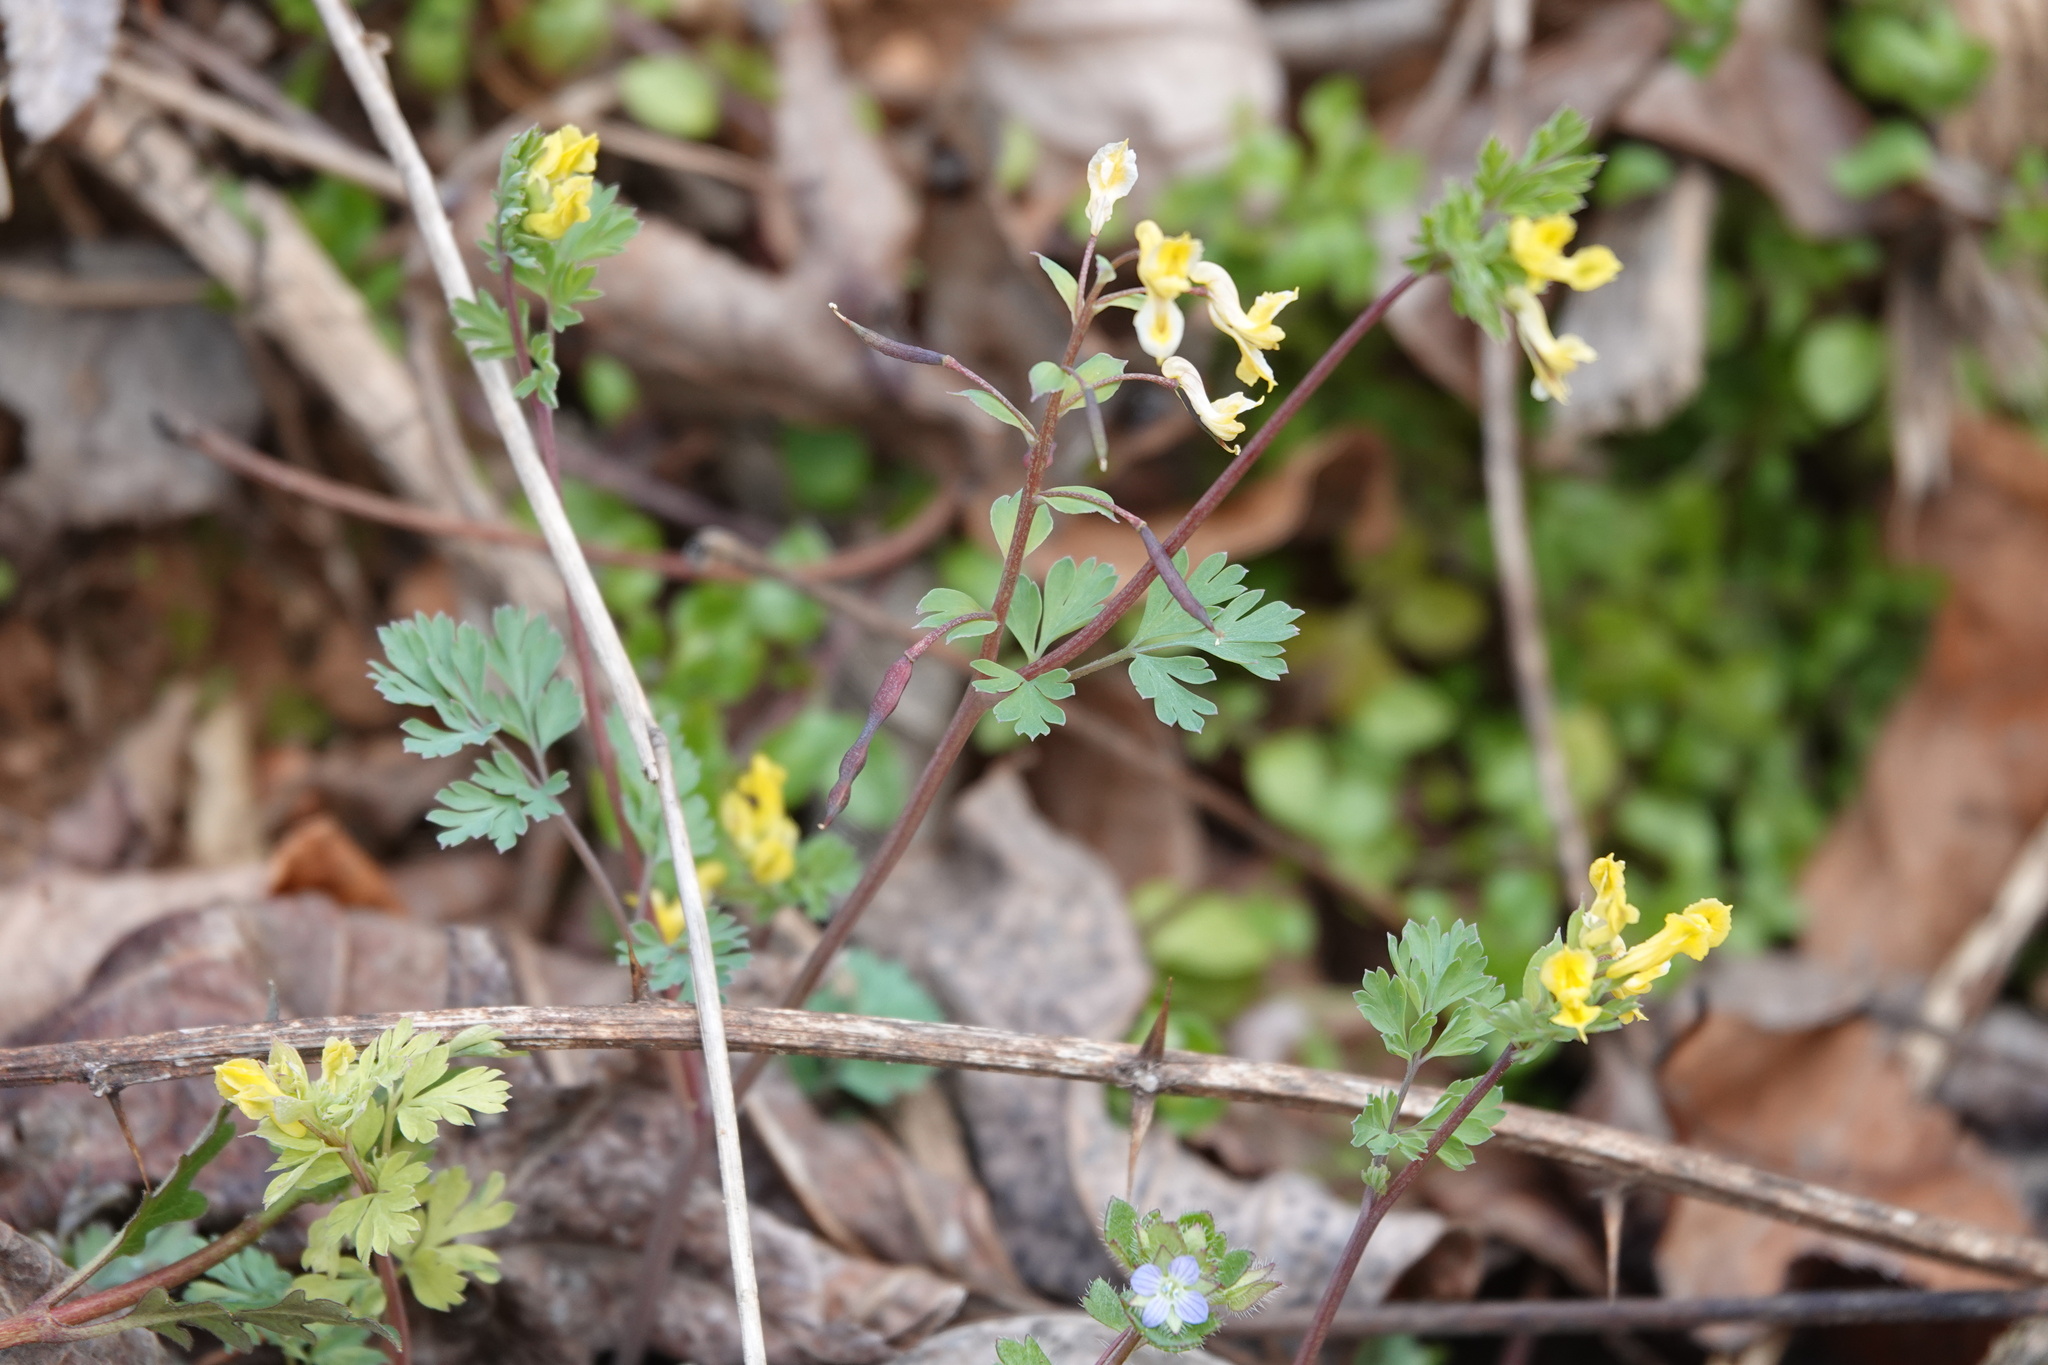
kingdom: Plantae
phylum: Tracheophyta
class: Magnoliopsida
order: Ranunculales
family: Papaveraceae
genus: Corydalis
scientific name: Corydalis flavula
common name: Yellow corydalis
